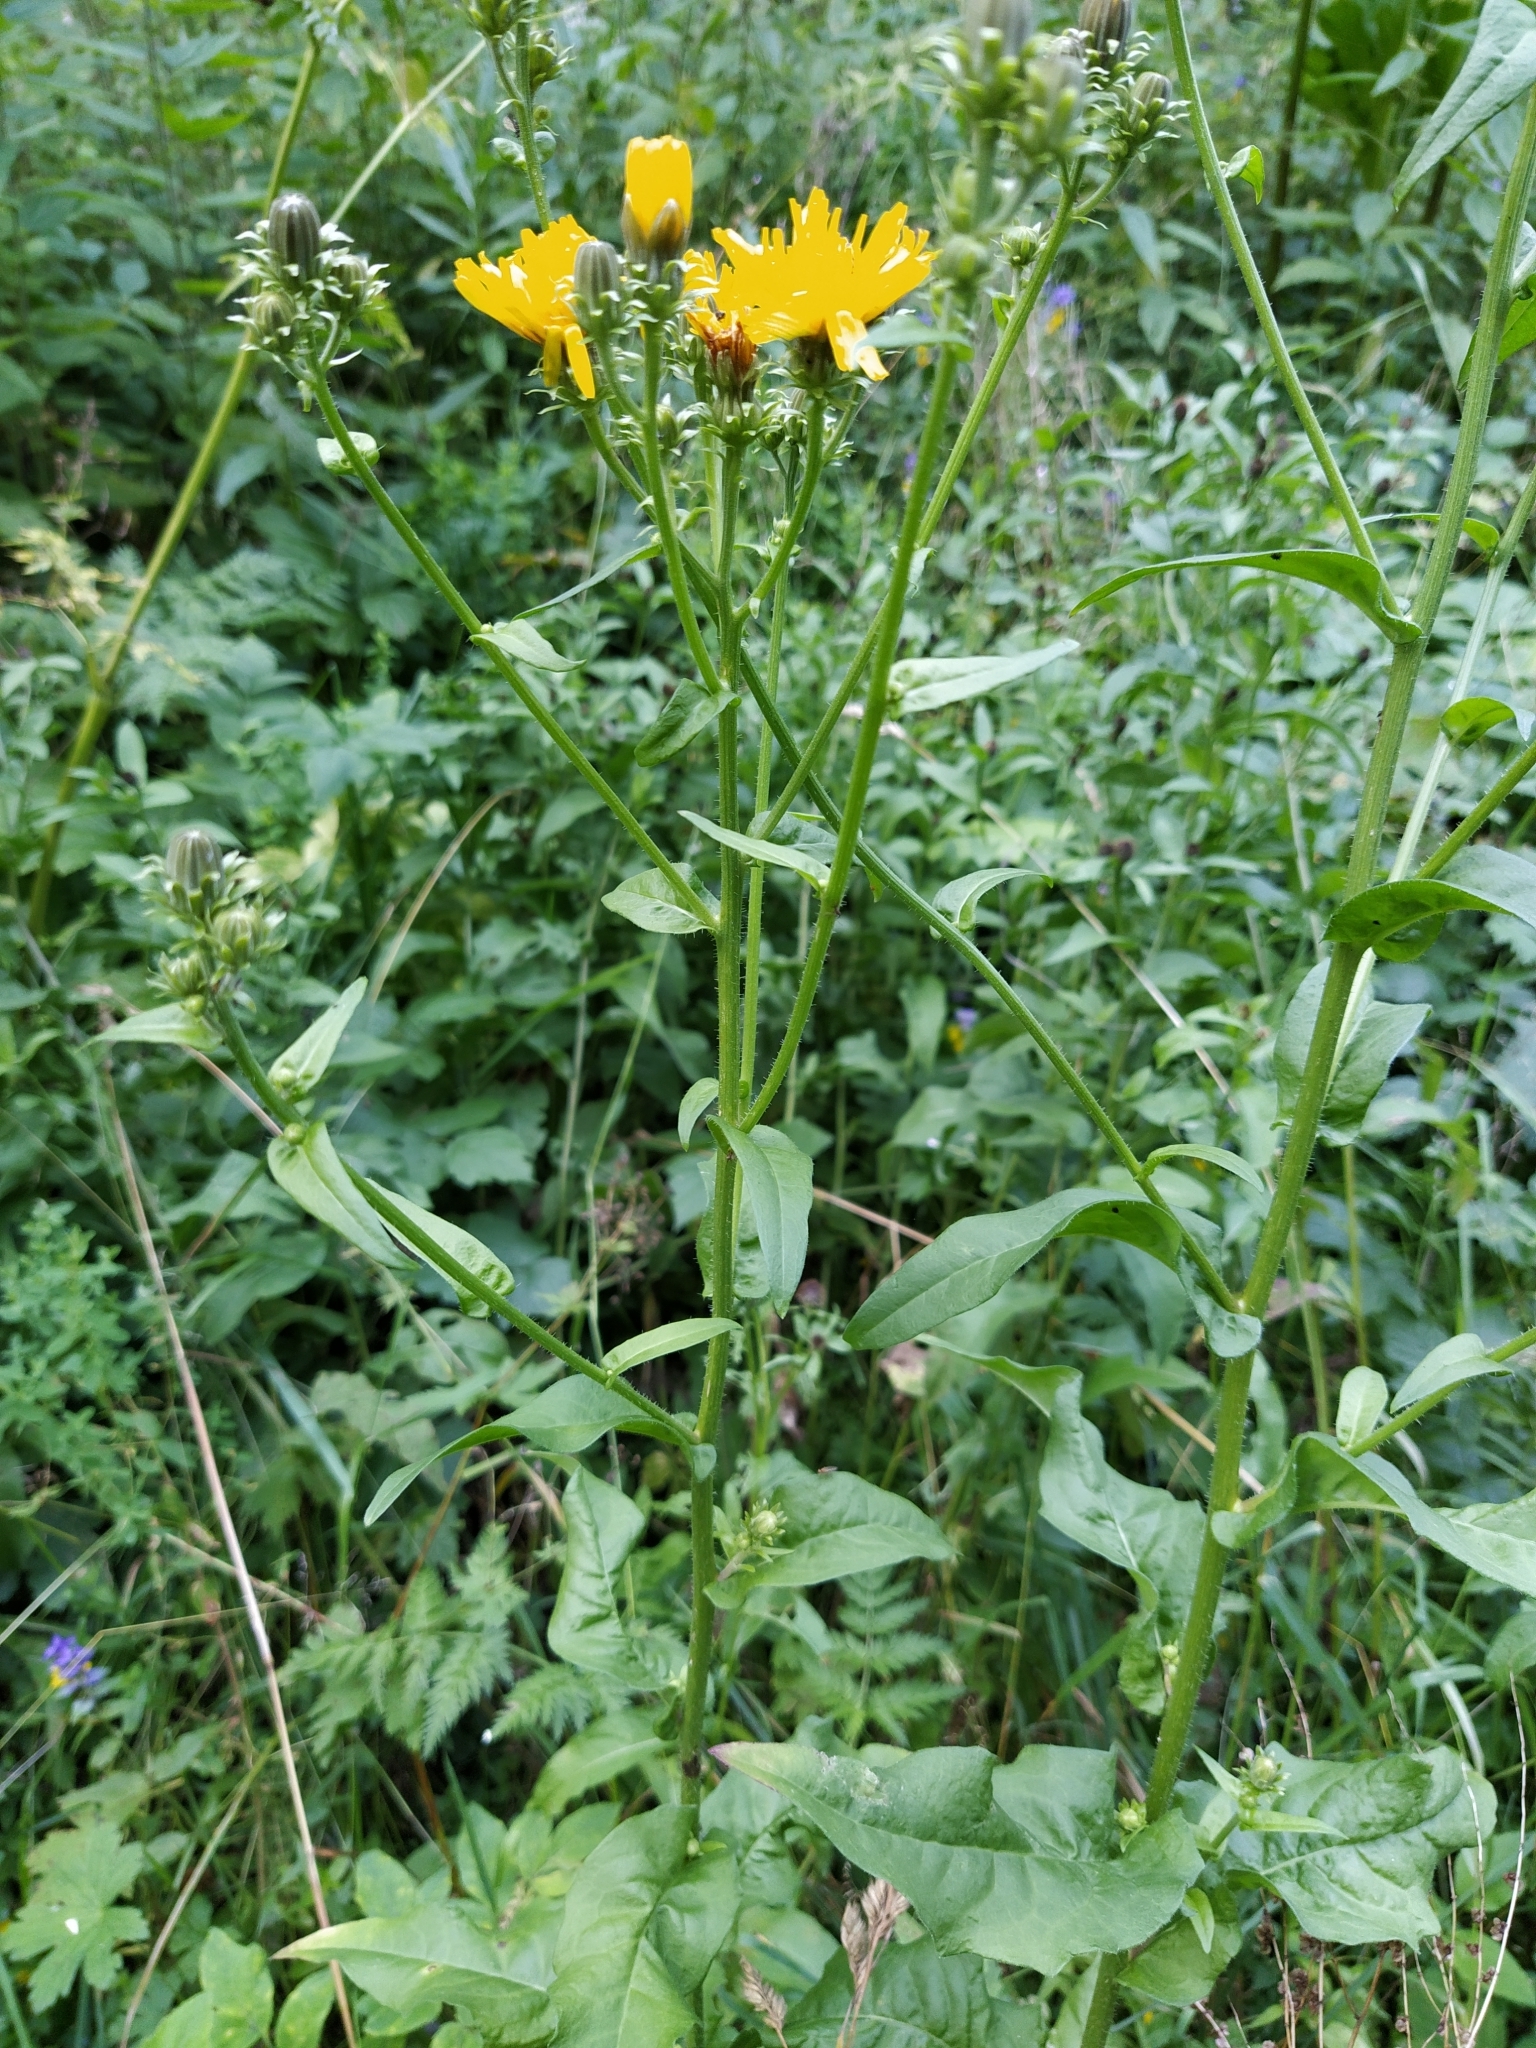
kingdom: Plantae
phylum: Tracheophyta
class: Magnoliopsida
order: Asterales
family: Asteraceae
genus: Picris
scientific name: Picris hieracioides
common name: Hawkweed oxtongue
